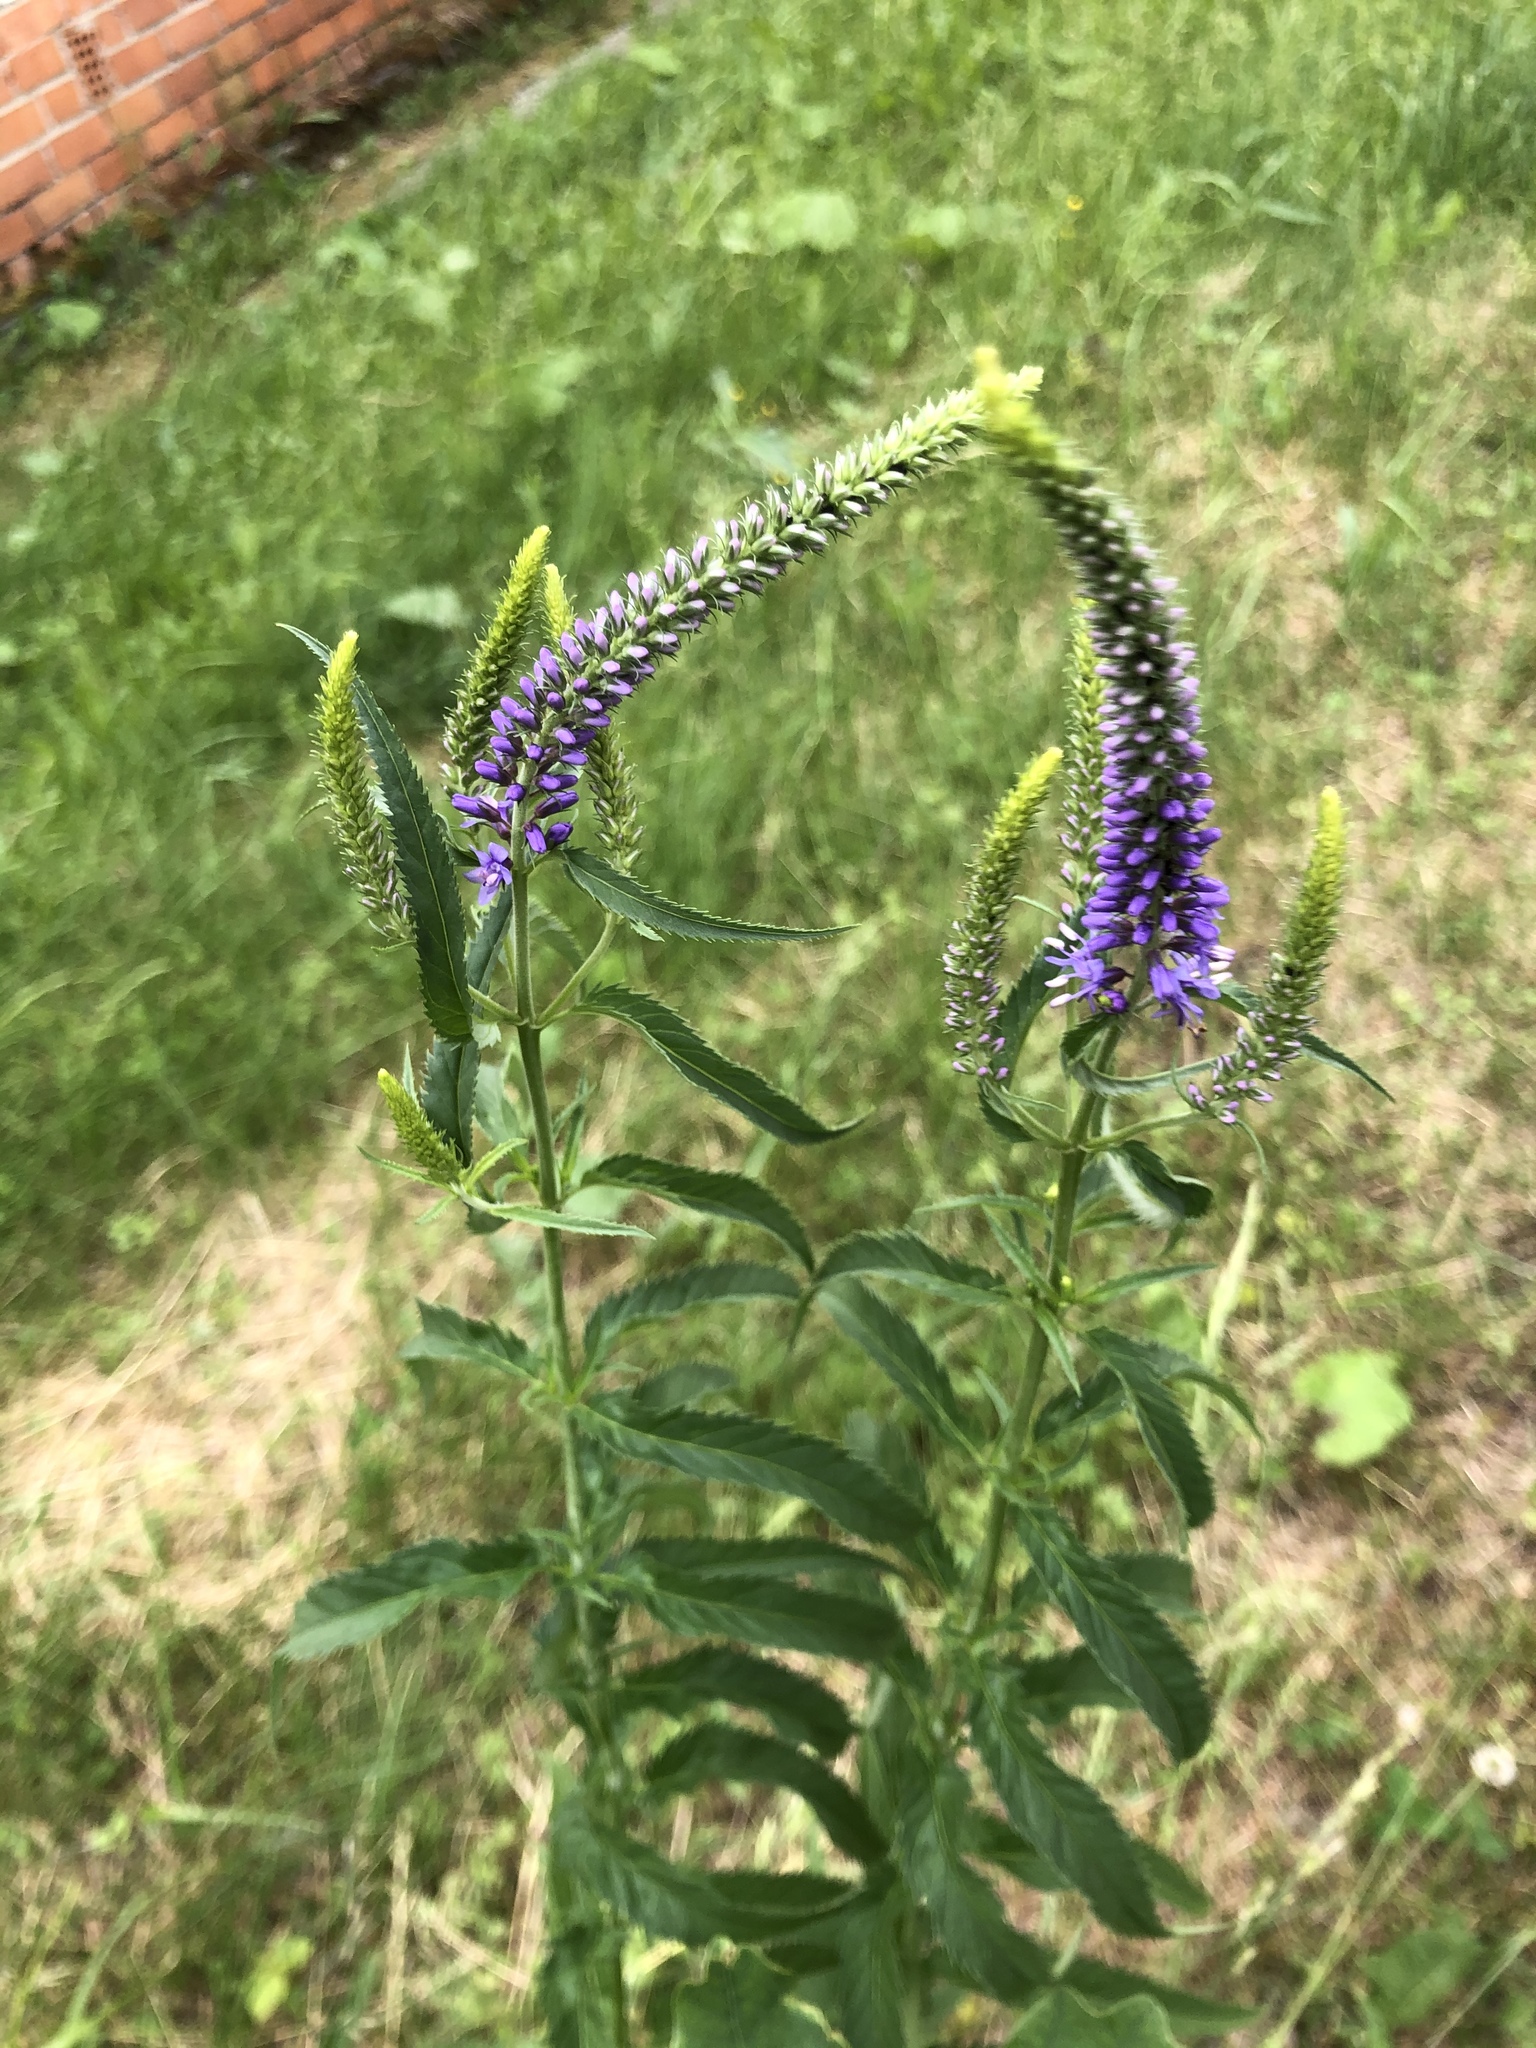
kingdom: Plantae
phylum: Tracheophyta
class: Magnoliopsida
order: Lamiales
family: Plantaginaceae
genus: Veronica
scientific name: Veronica longifolia
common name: Garden speedwell
